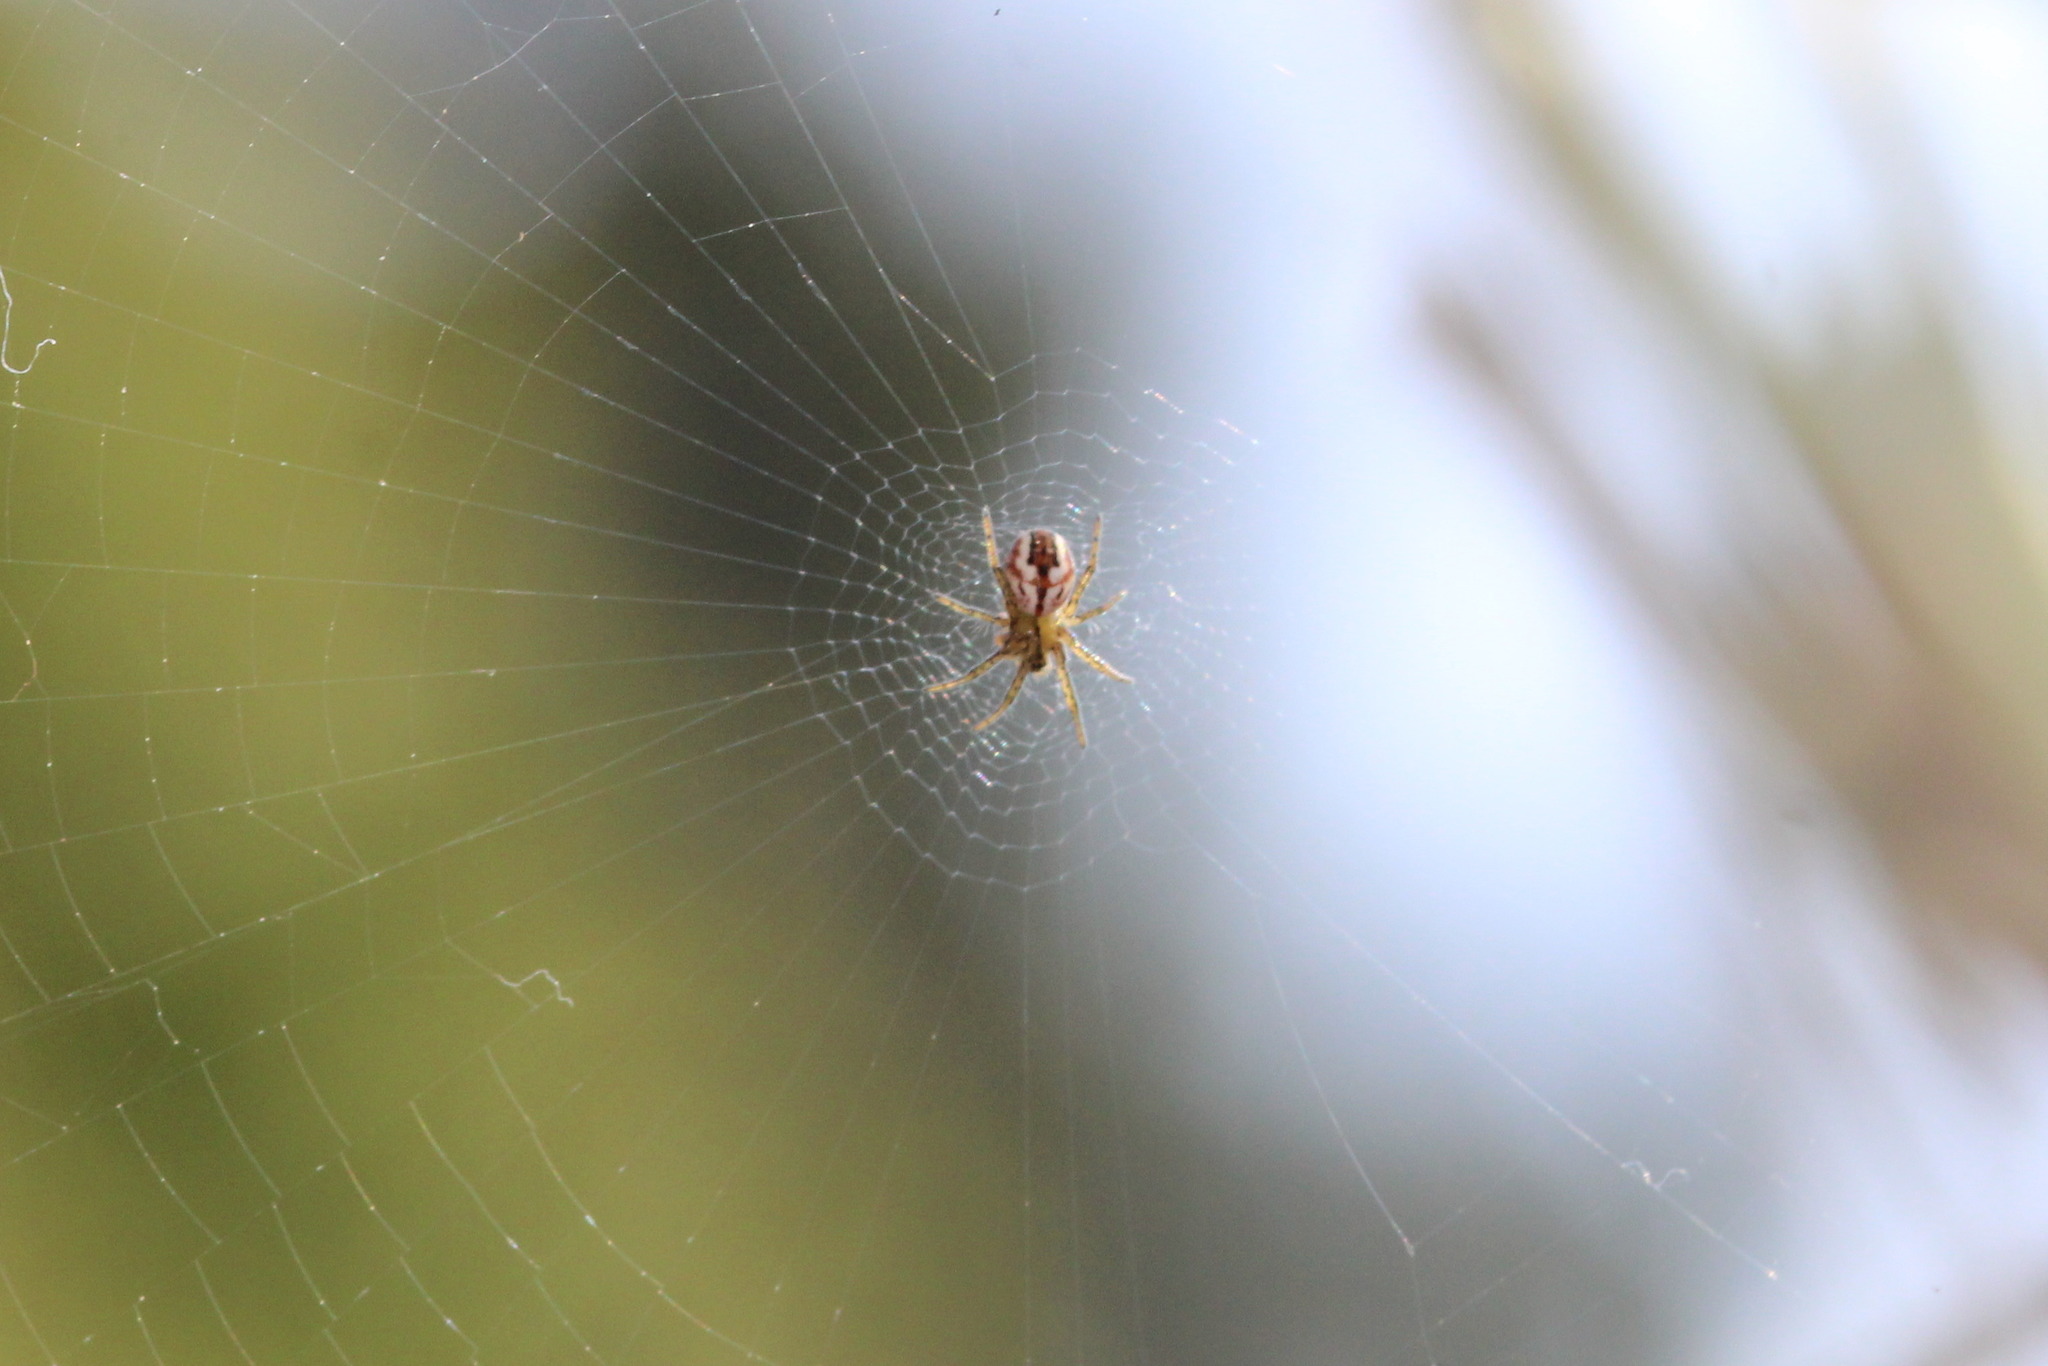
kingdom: Animalia
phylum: Arthropoda
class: Arachnida
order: Araneae
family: Araneidae
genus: Mangora
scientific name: Mangora acalypha
